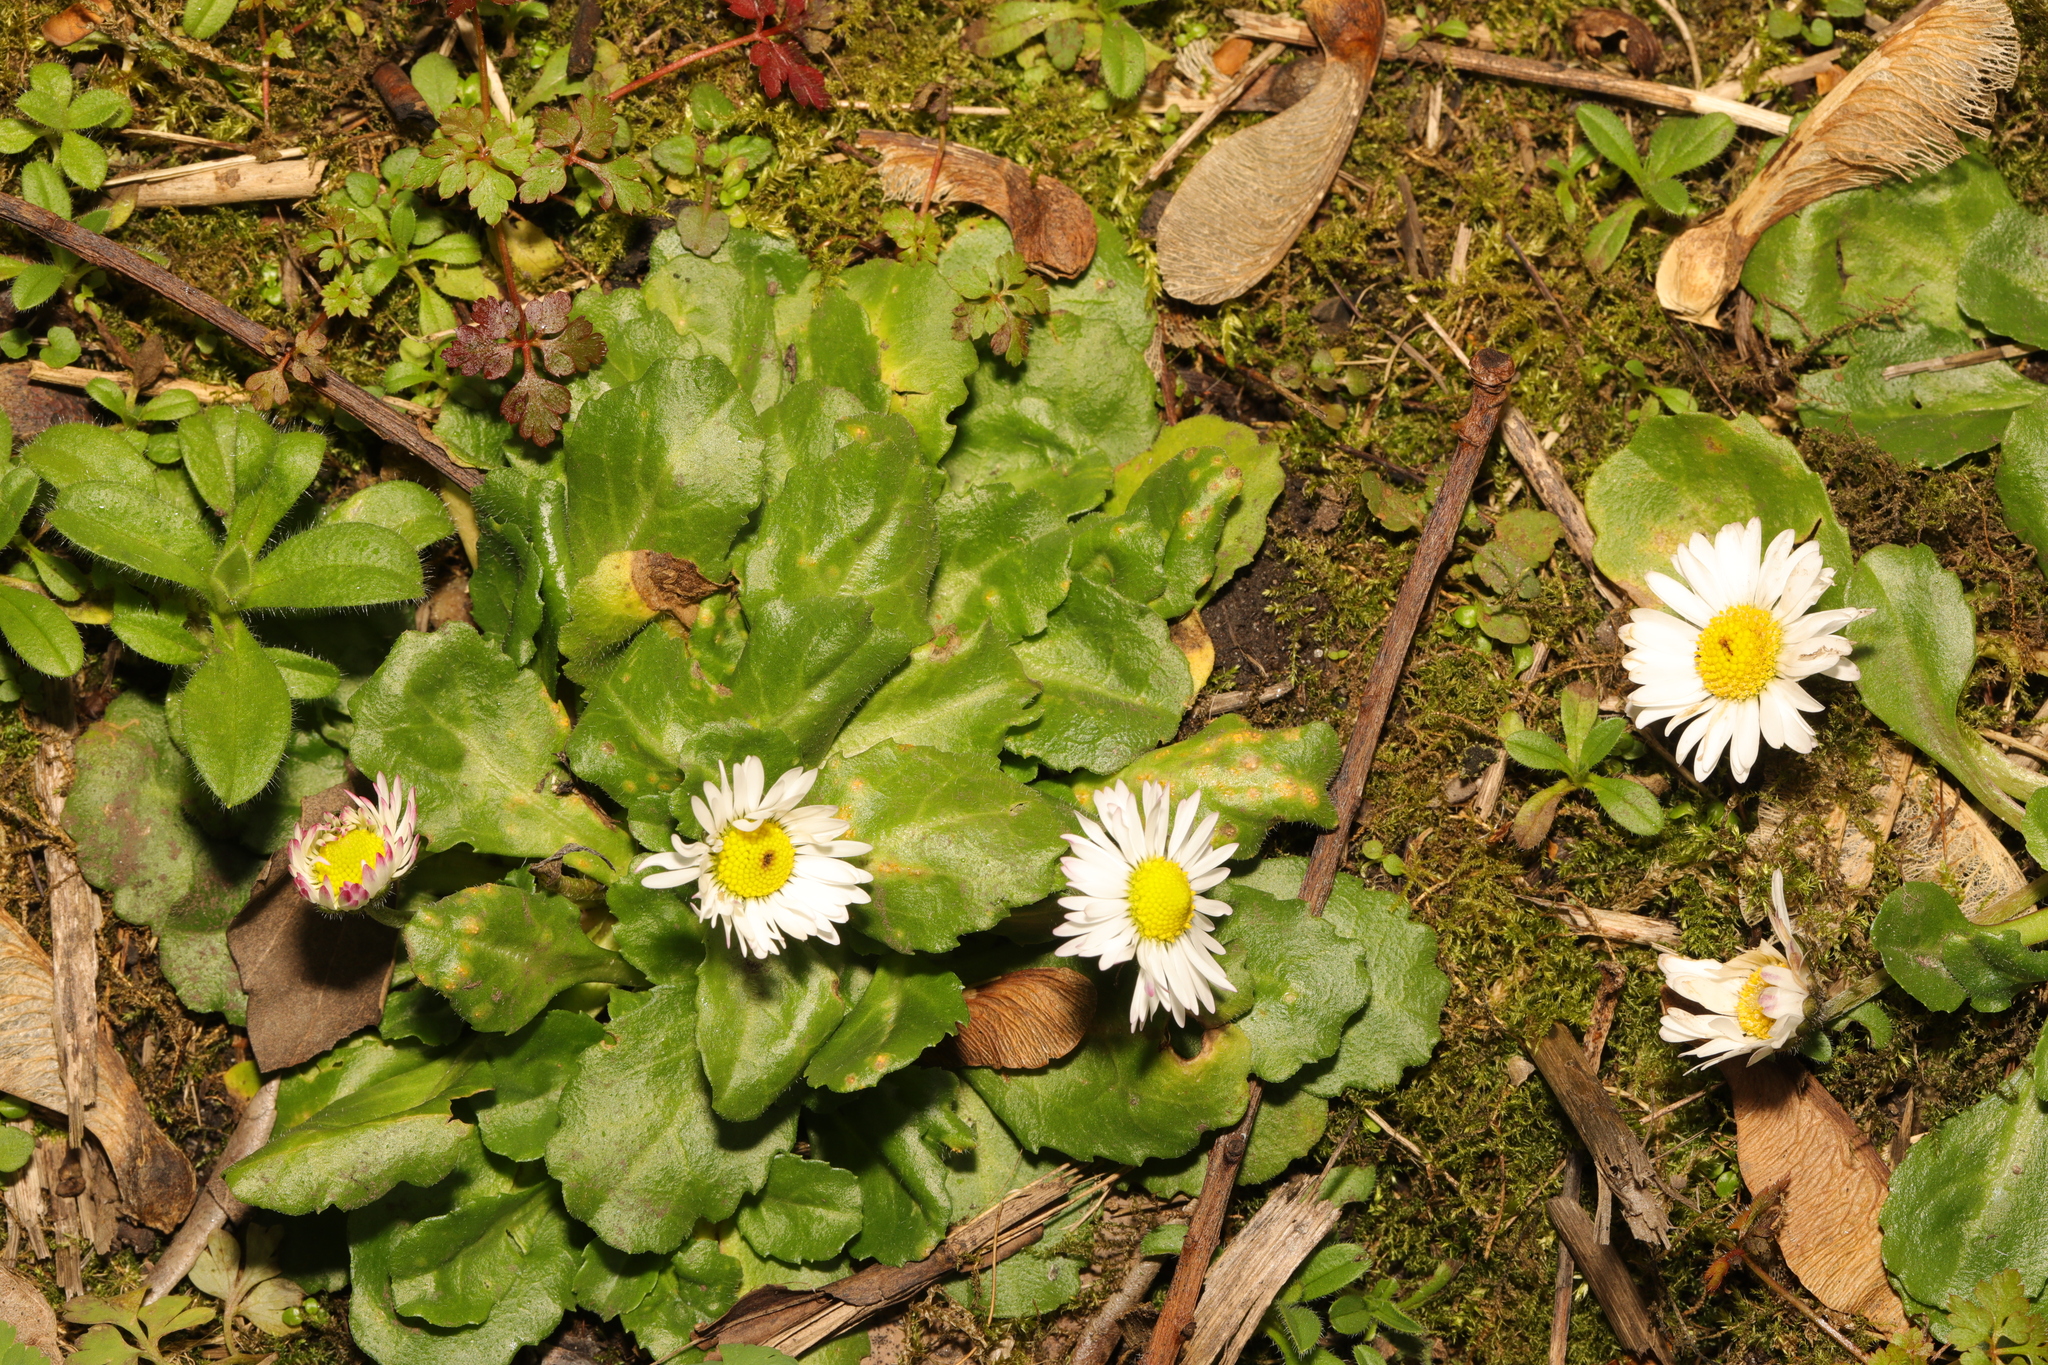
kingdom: Plantae
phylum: Tracheophyta
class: Magnoliopsida
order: Asterales
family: Asteraceae
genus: Bellis
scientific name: Bellis perennis
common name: Lawndaisy
